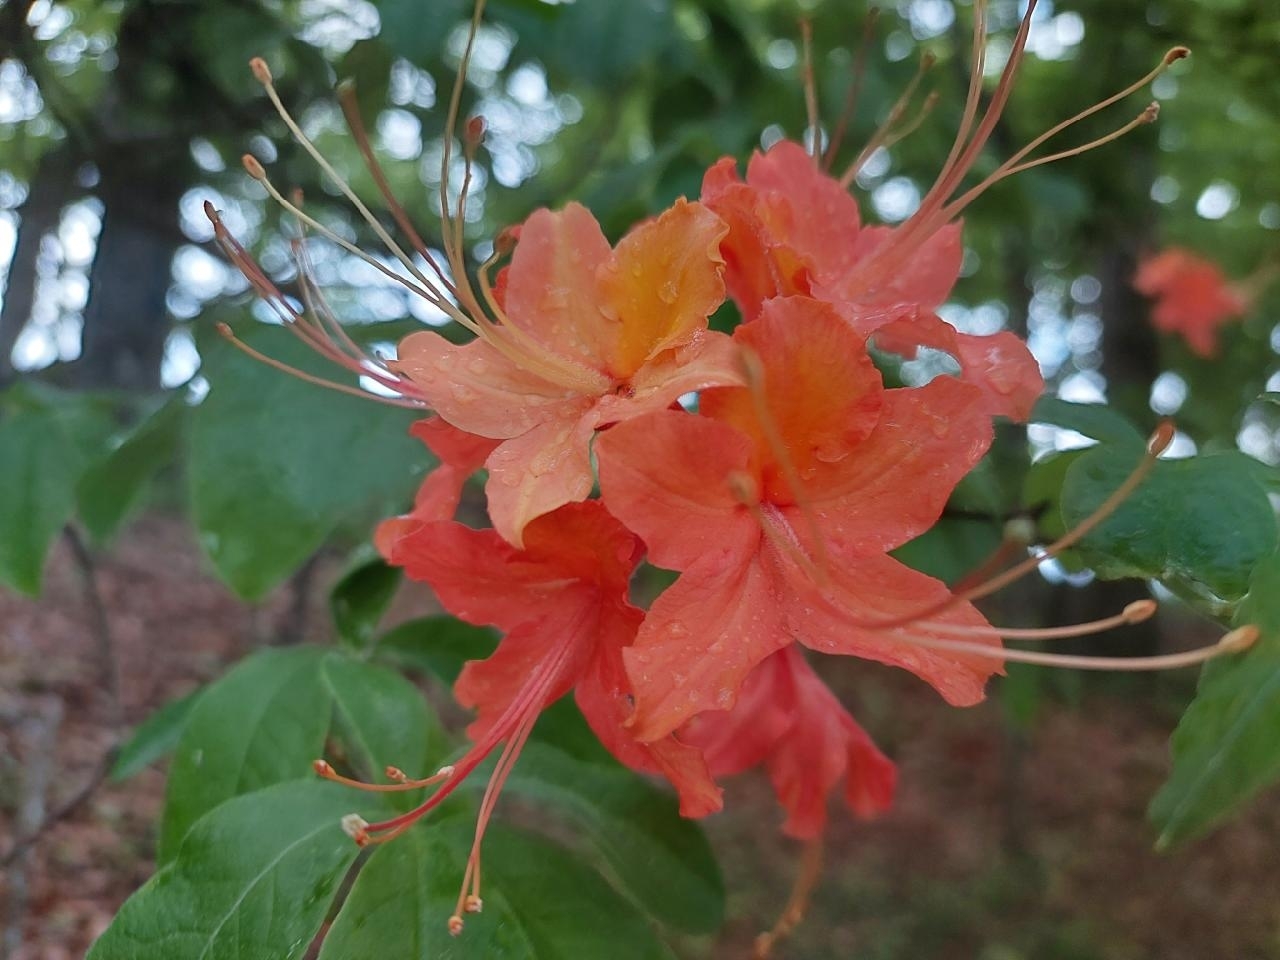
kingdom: Plantae
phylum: Tracheophyta
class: Magnoliopsida
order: Ericales
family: Ericaceae
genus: Rhododendron
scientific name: Rhododendron calendulaceum
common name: Flame azalea
